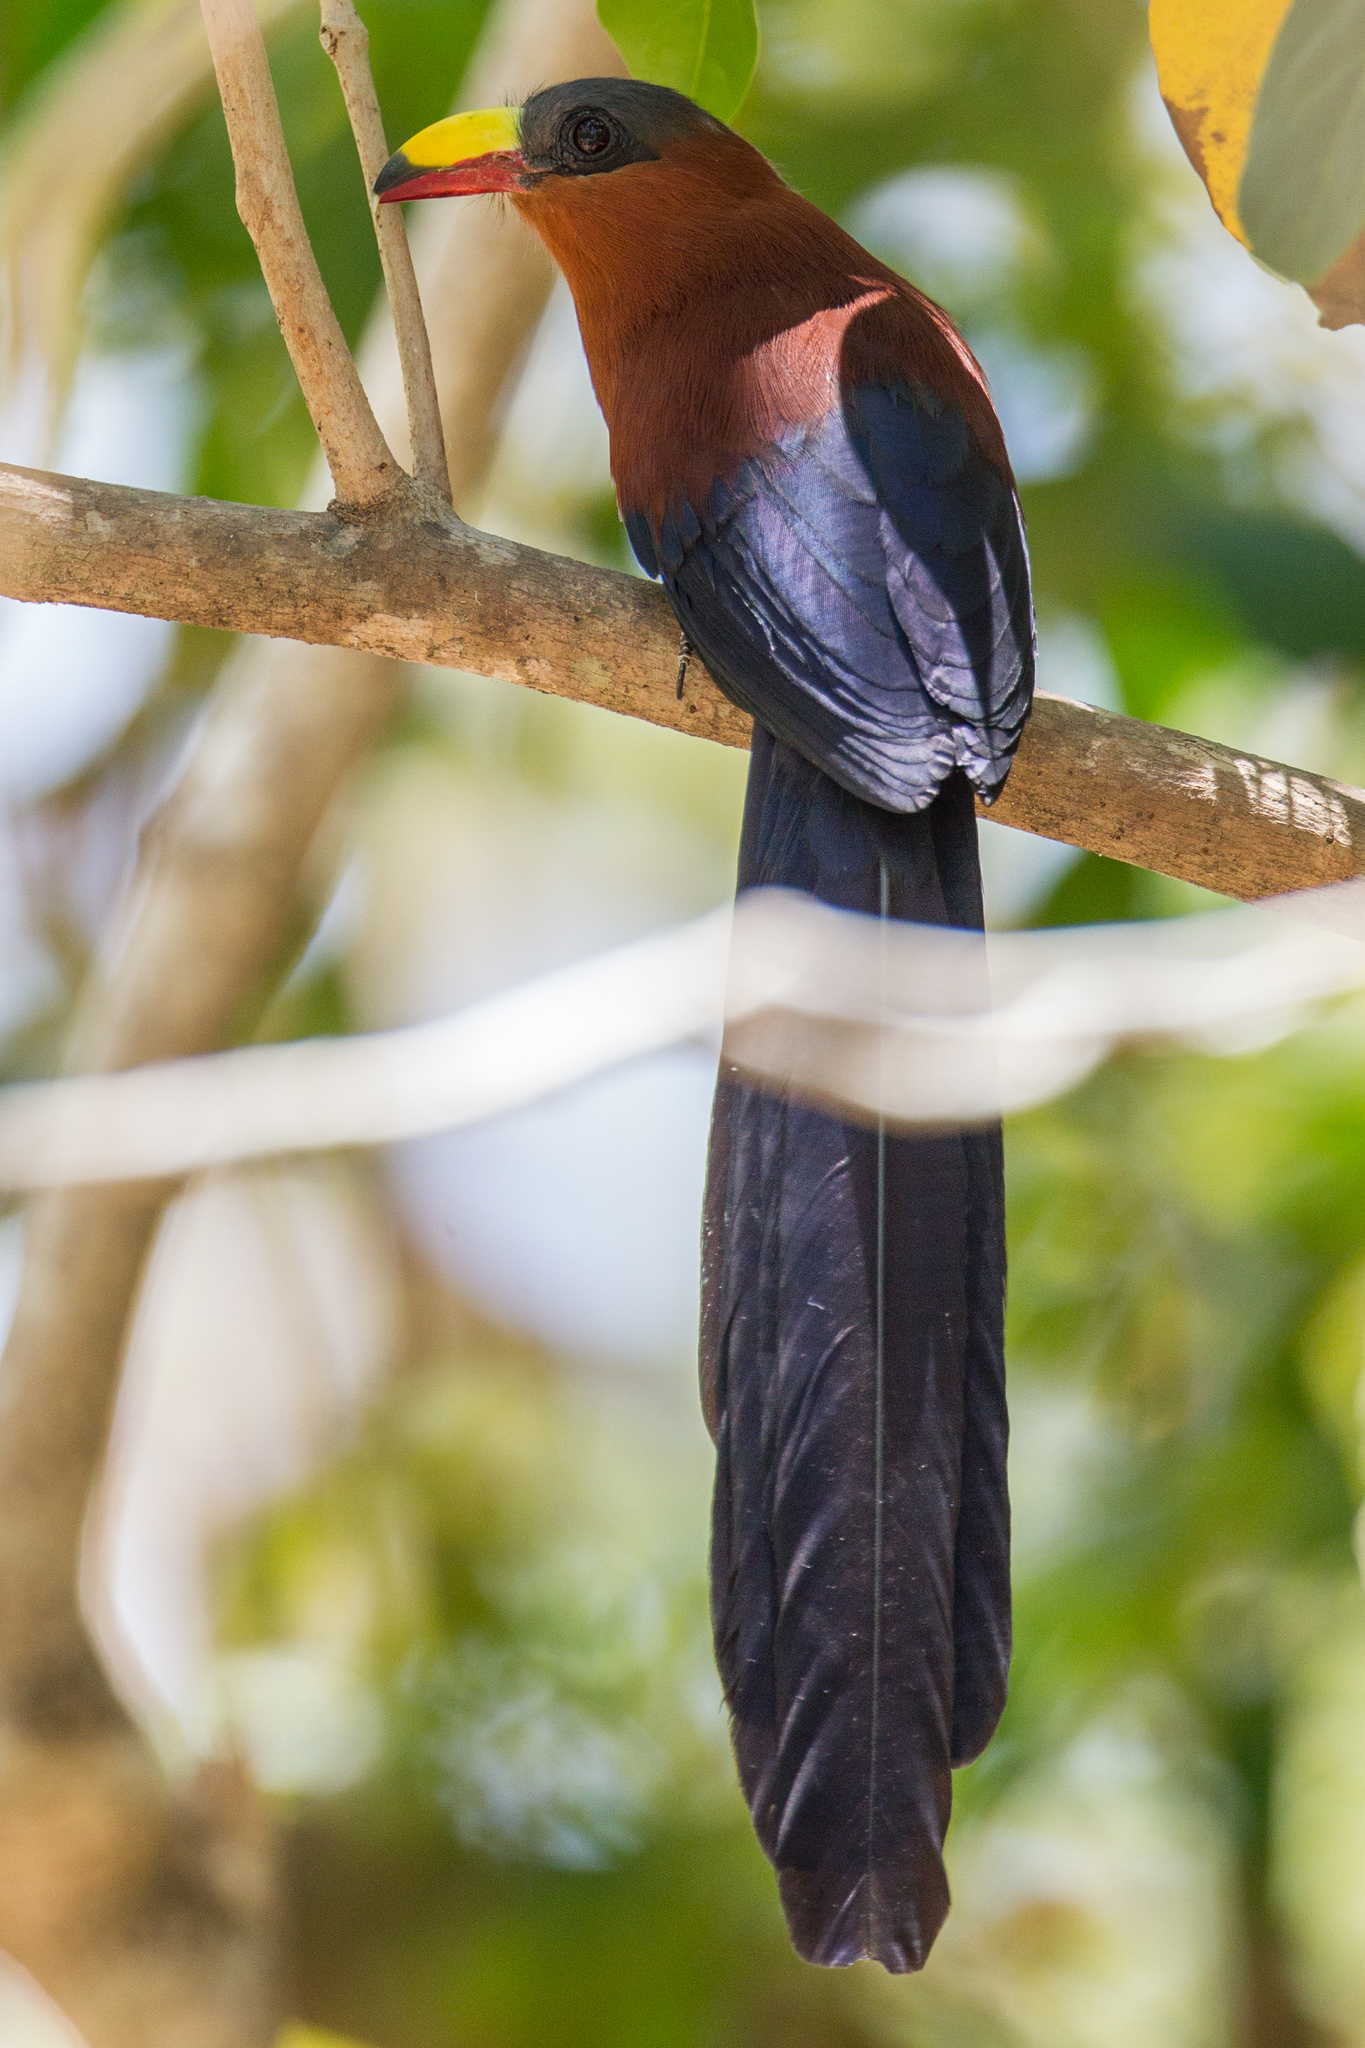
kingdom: Animalia
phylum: Chordata
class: Aves
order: Cuculiformes
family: Cuculidae
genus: Zanclostomus
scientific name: Zanclostomus calyorhynchus
